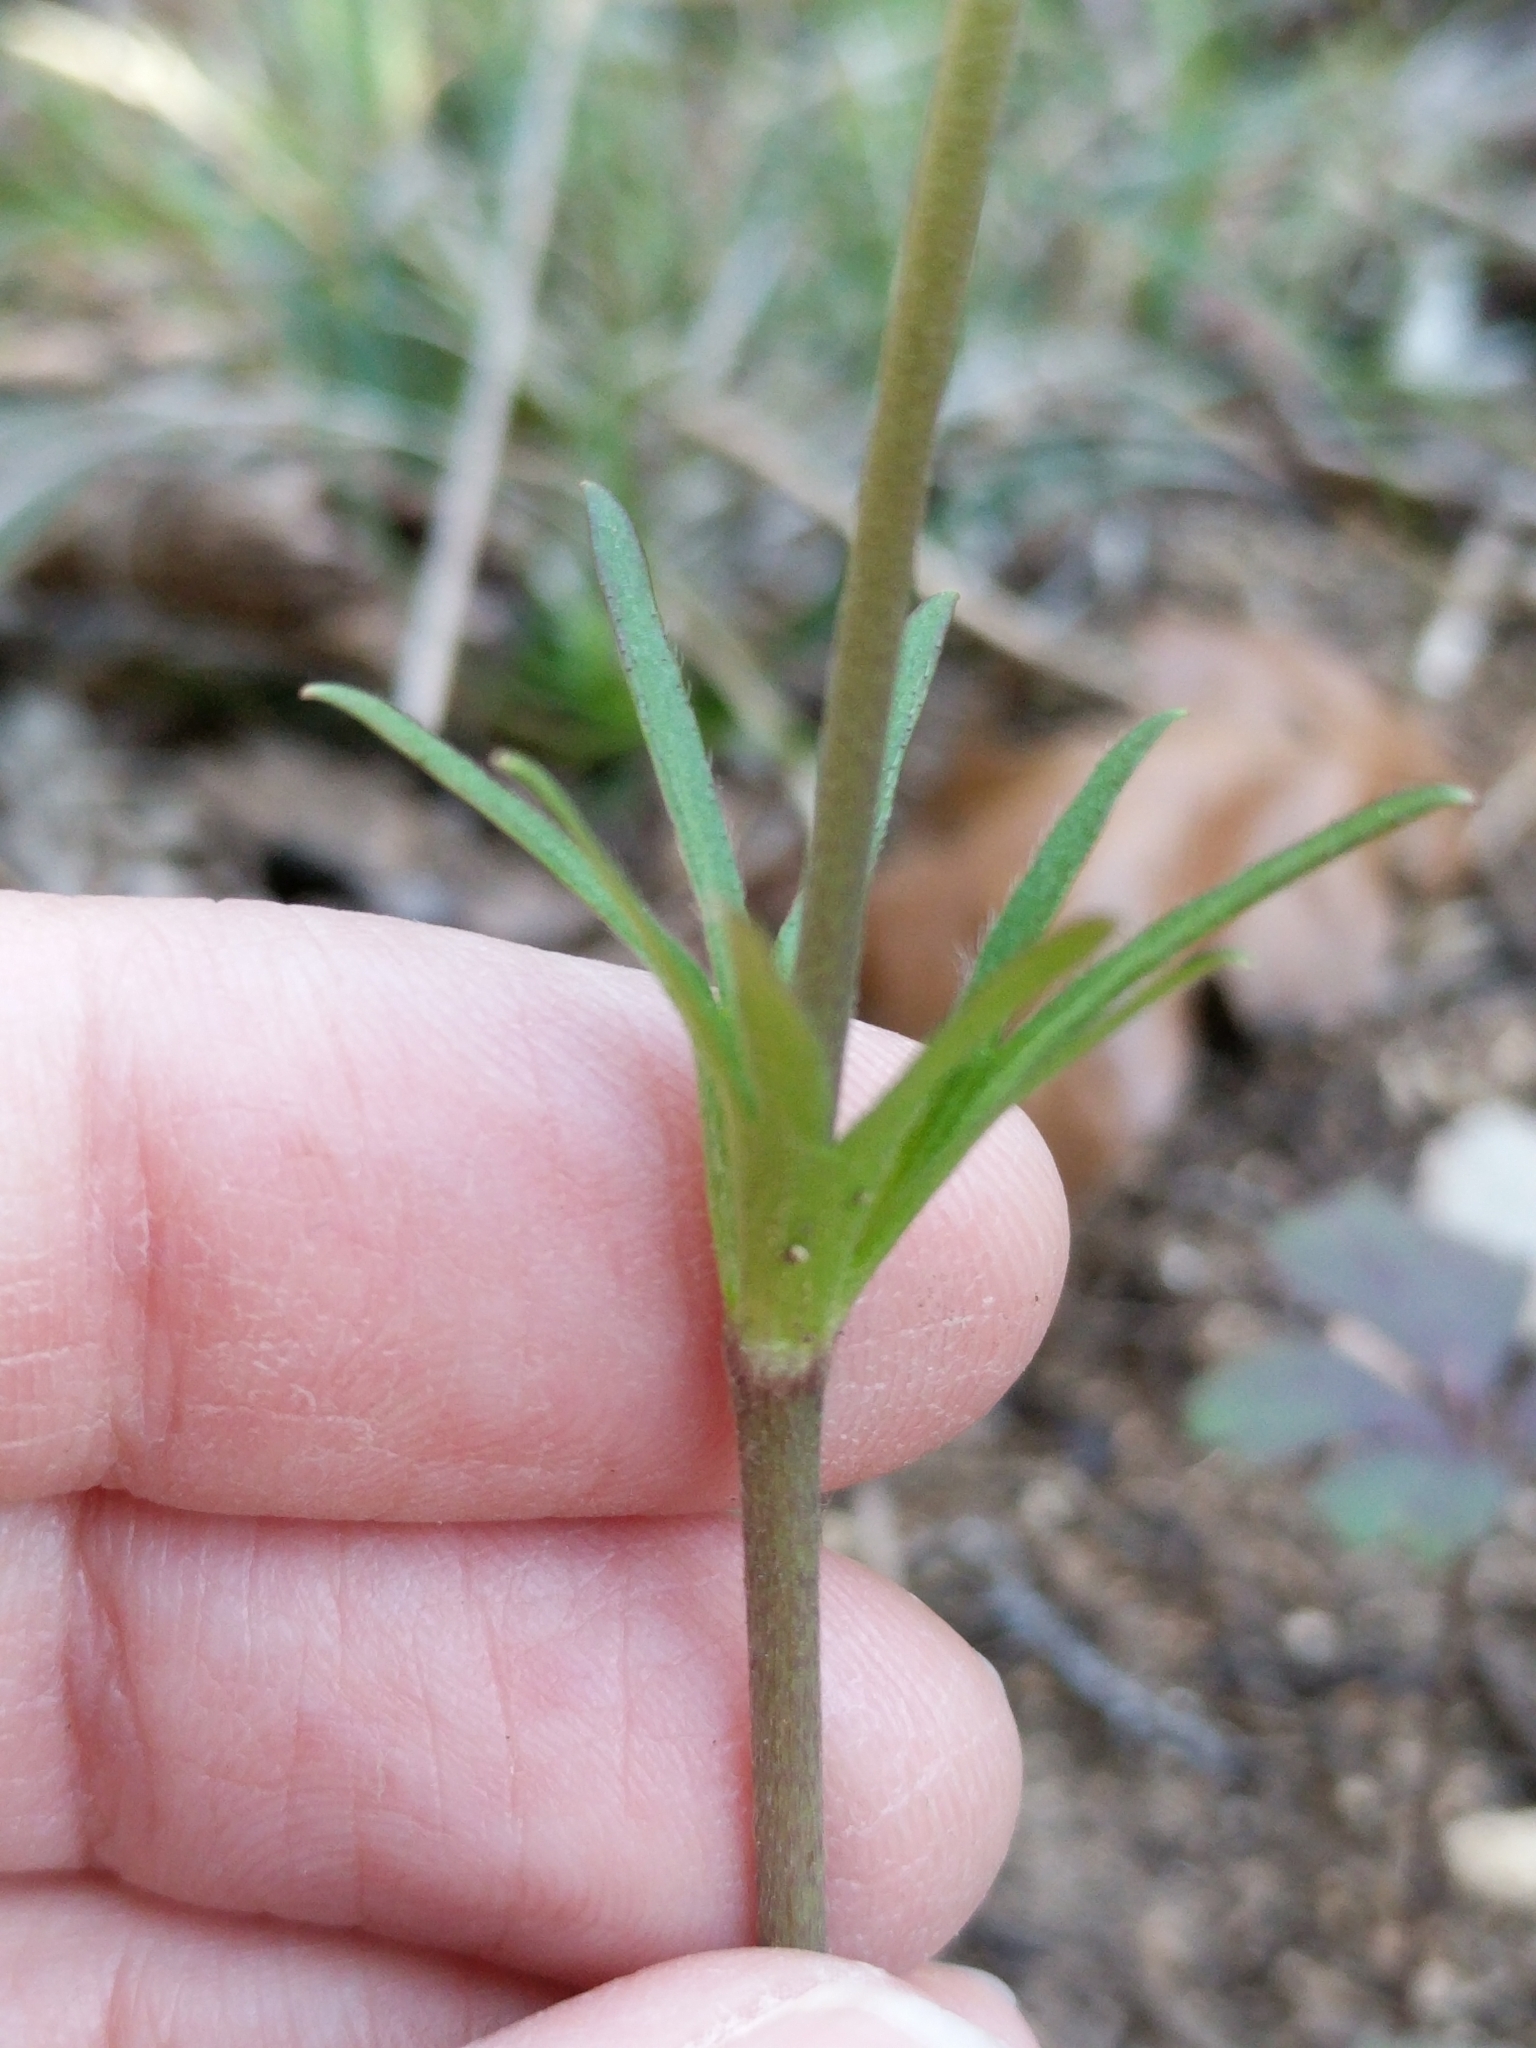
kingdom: Plantae
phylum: Tracheophyta
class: Magnoliopsida
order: Ranunculales
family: Ranunculaceae
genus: Anemone
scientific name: Anemone berlandieri
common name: Ten-petal anemone
